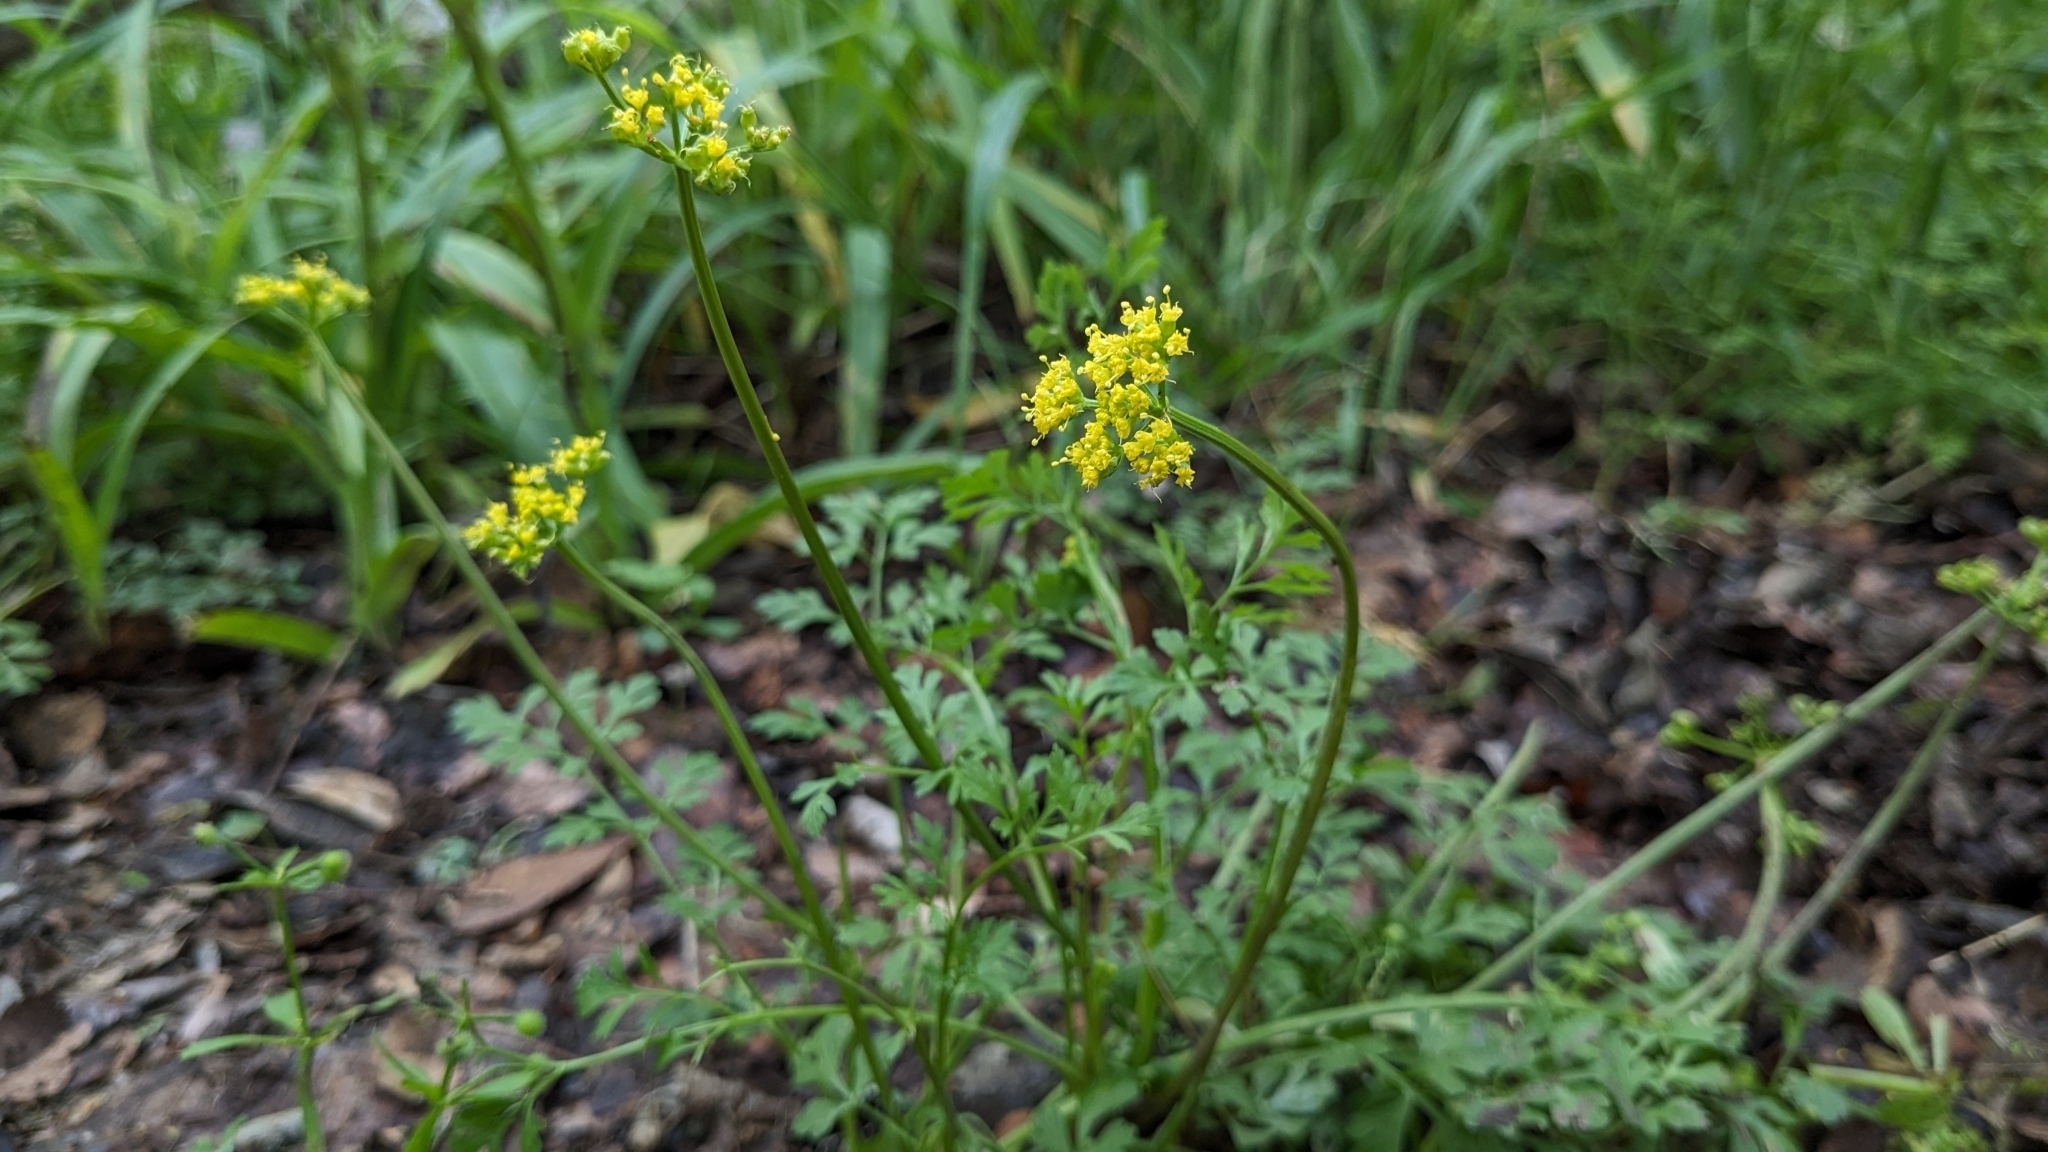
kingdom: Plantae
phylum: Tracheophyta
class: Magnoliopsida
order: Apiales
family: Apiaceae
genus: Tauschia
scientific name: Tauschia texana
